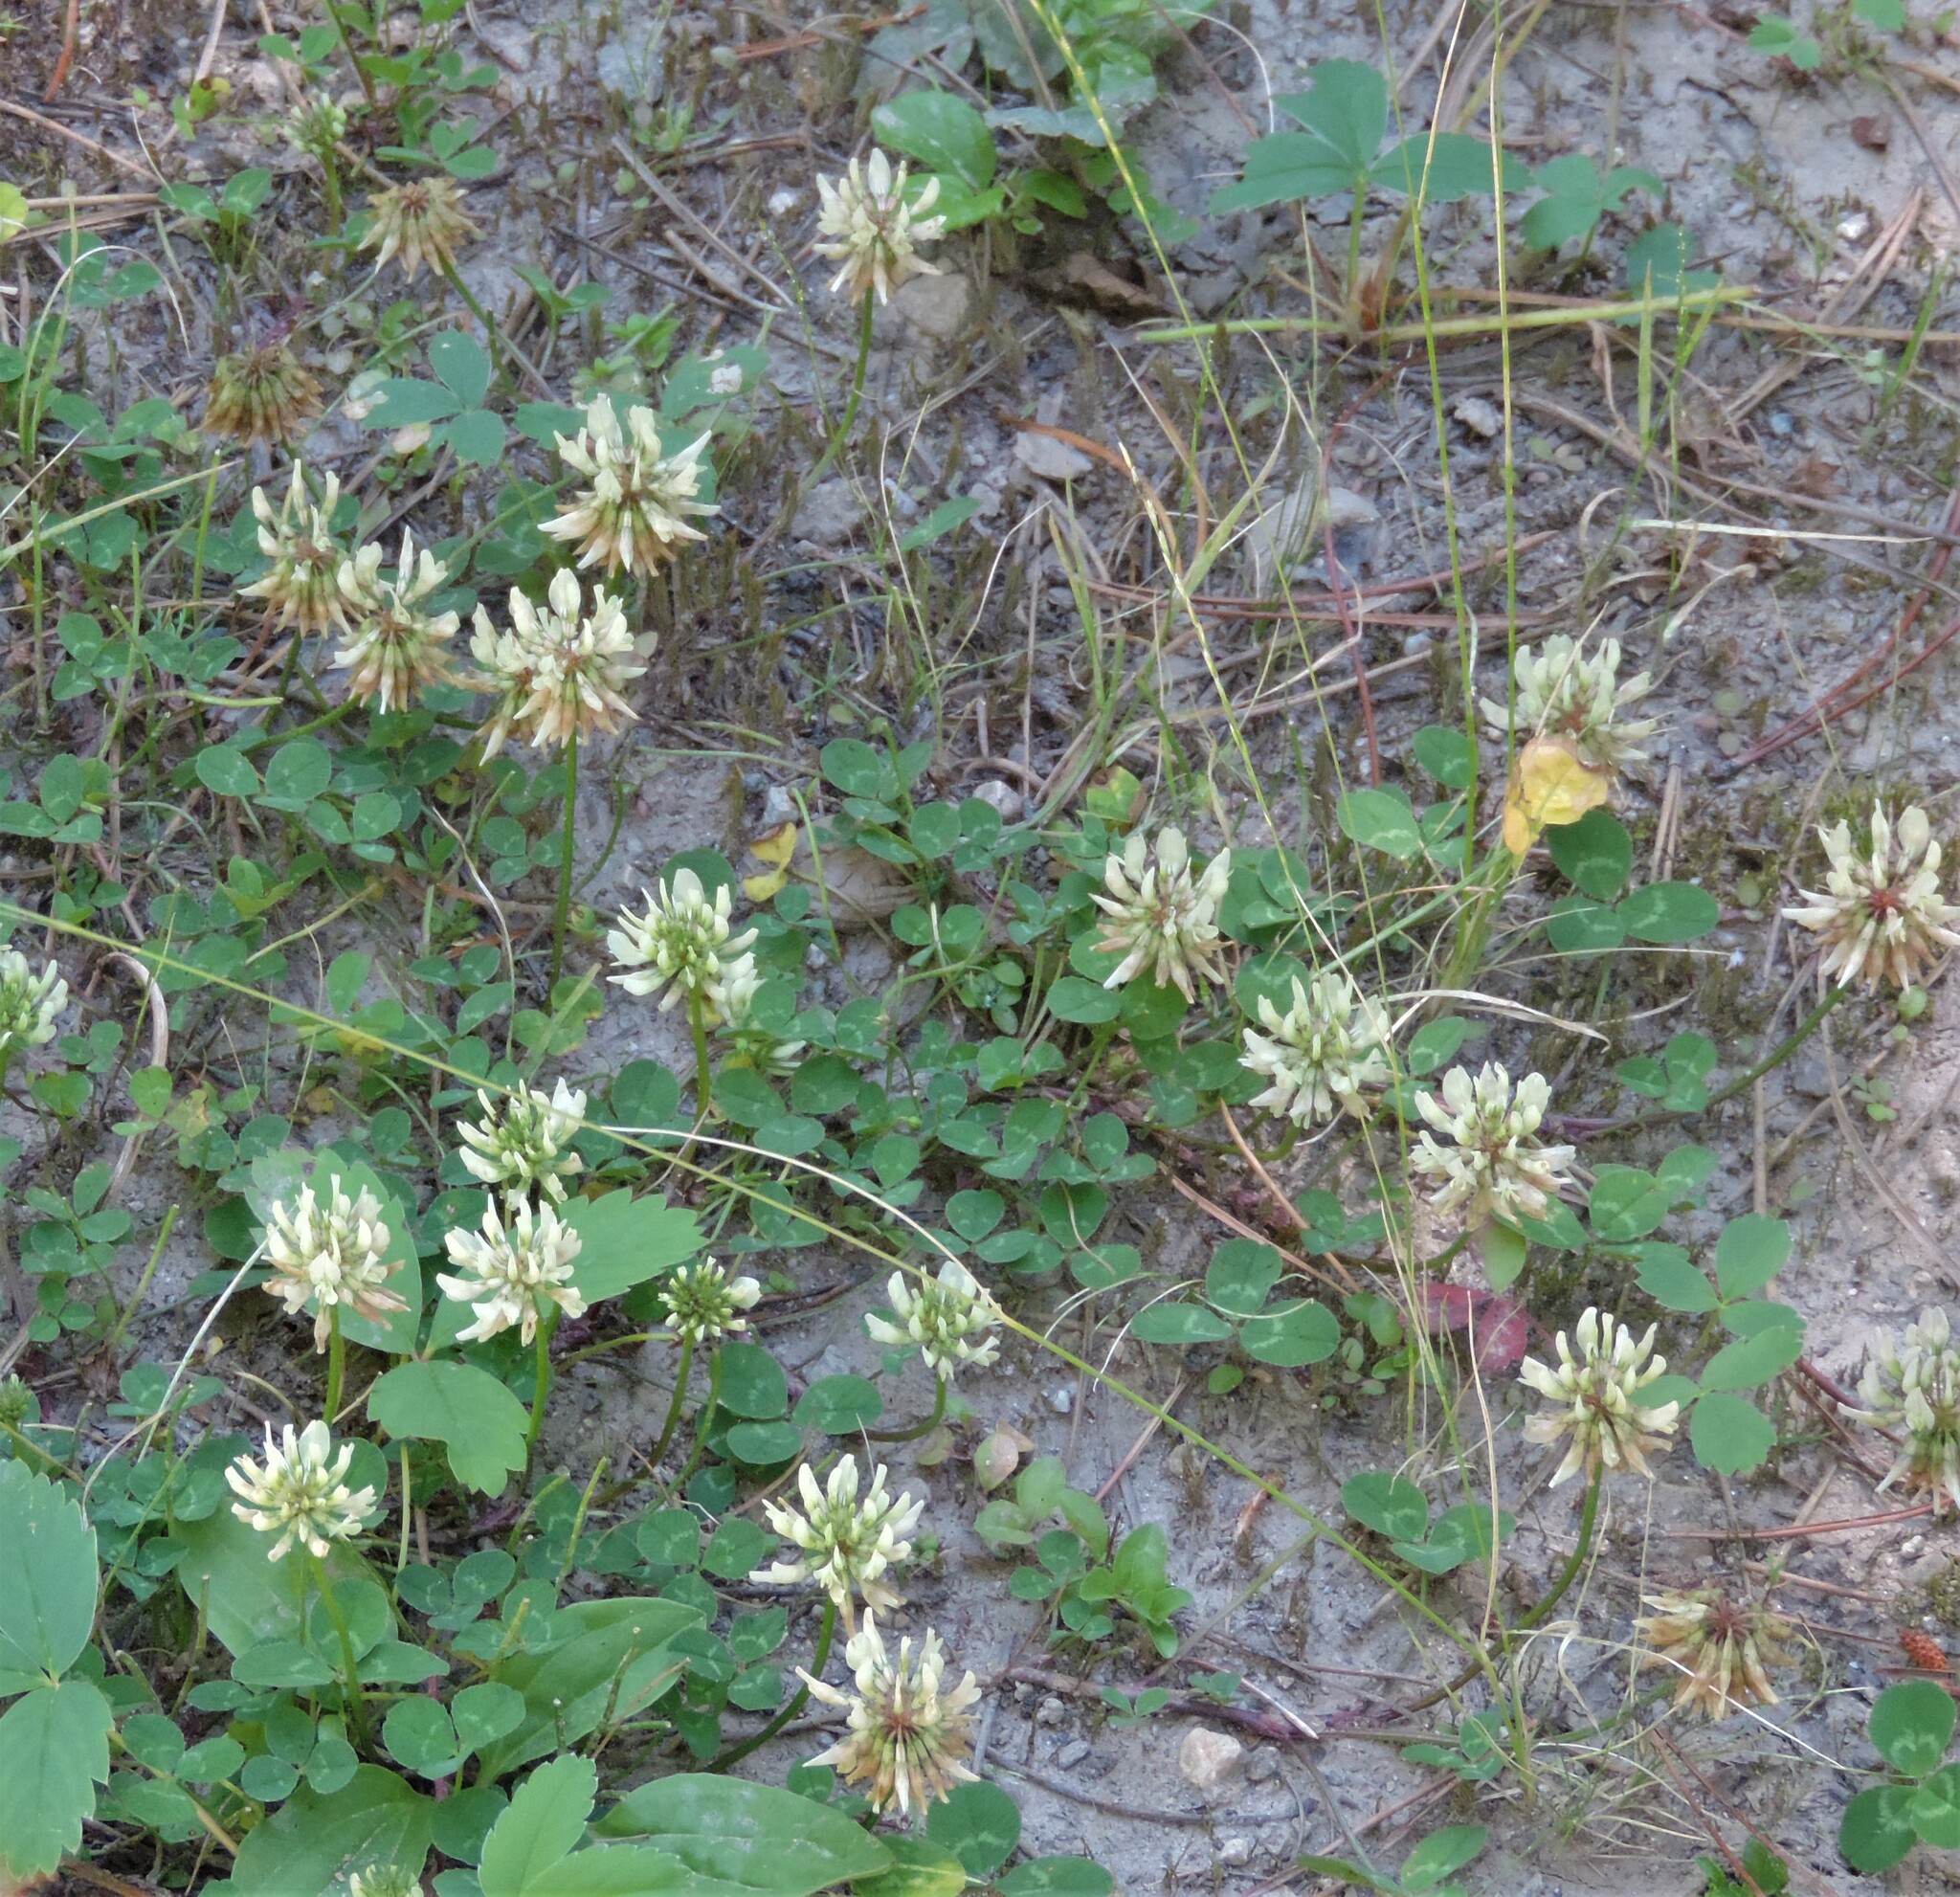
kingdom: Plantae
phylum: Tracheophyta
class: Magnoliopsida
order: Fabales
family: Fabaceae
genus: Trifolium
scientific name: Trifolium repens
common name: White clover
